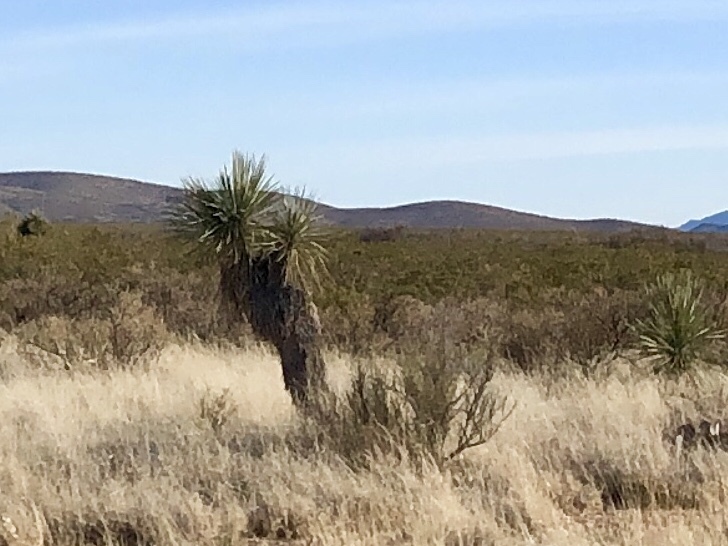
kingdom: Plantae
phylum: Tracheophyta
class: Liliopsida
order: Asparagales
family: Asparagaceae
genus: Yucca
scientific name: Yucca elata
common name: Palmella
